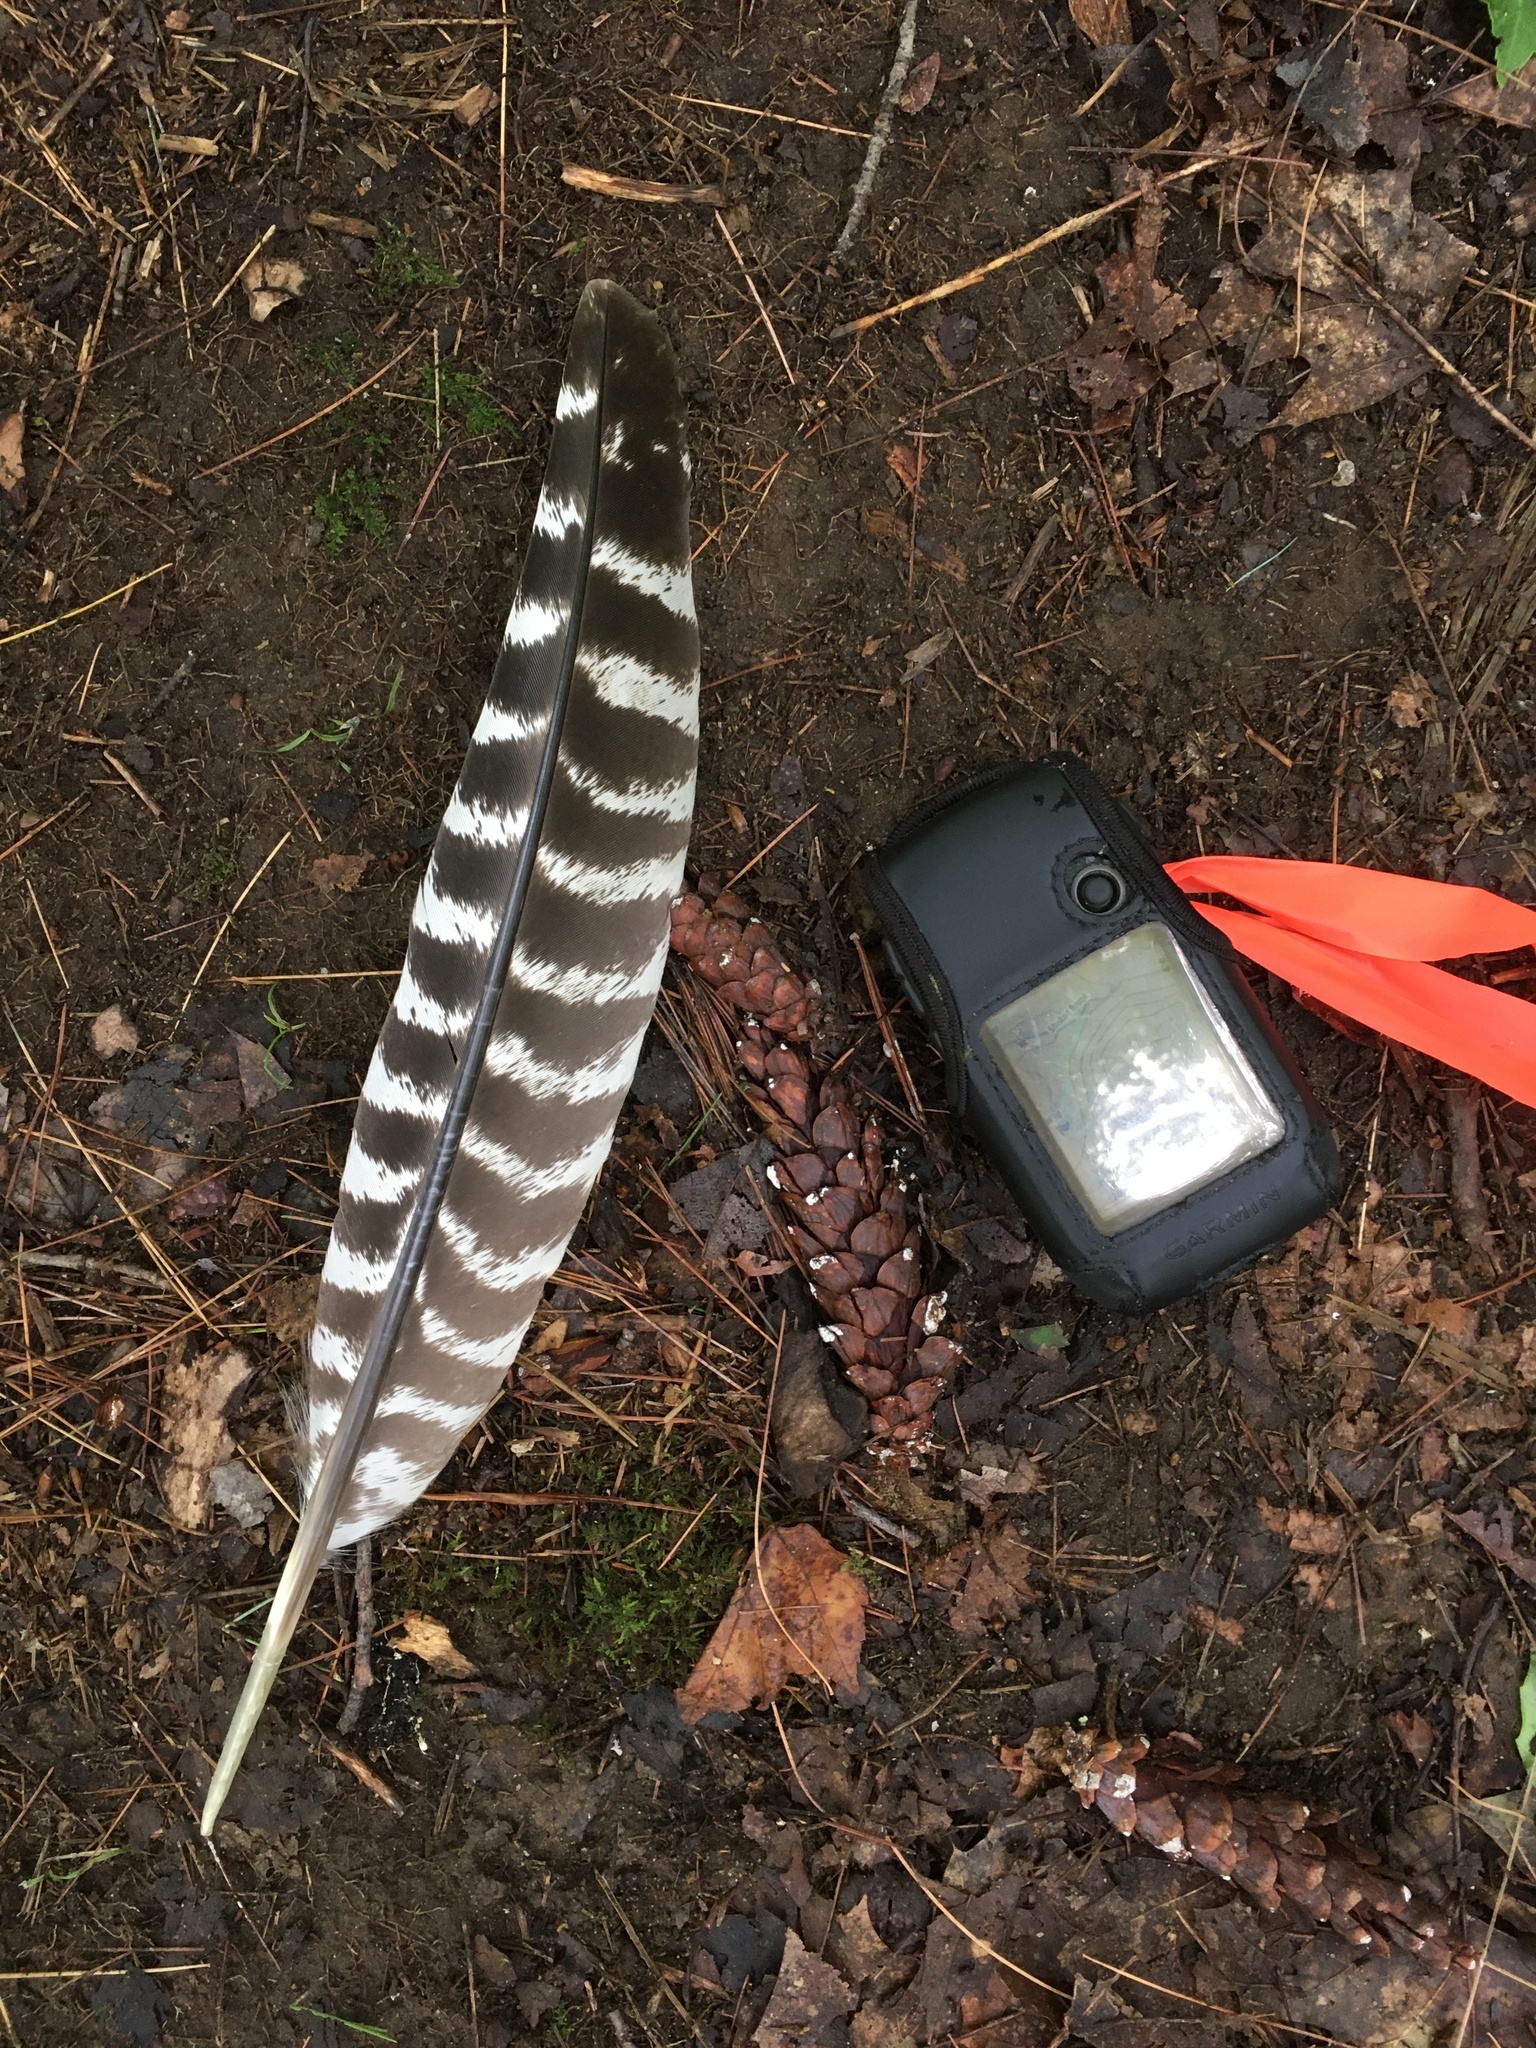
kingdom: Animalia
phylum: Chordata
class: Aves
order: Galliformes
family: Phasianidae
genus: Meleagris
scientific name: Meleagris gallopavo
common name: Wild turkey
